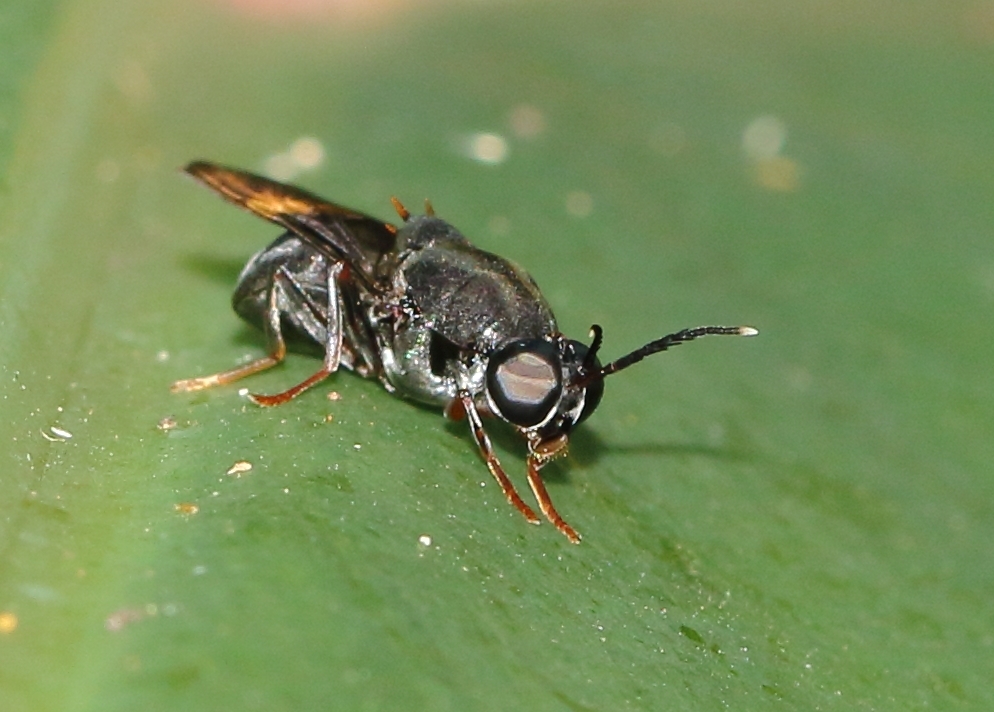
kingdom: Animalia
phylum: Arthropoda
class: Insecta
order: Diptera
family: Stratiomyidae
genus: Isomerocera
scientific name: Isomerocera quadrilineata
